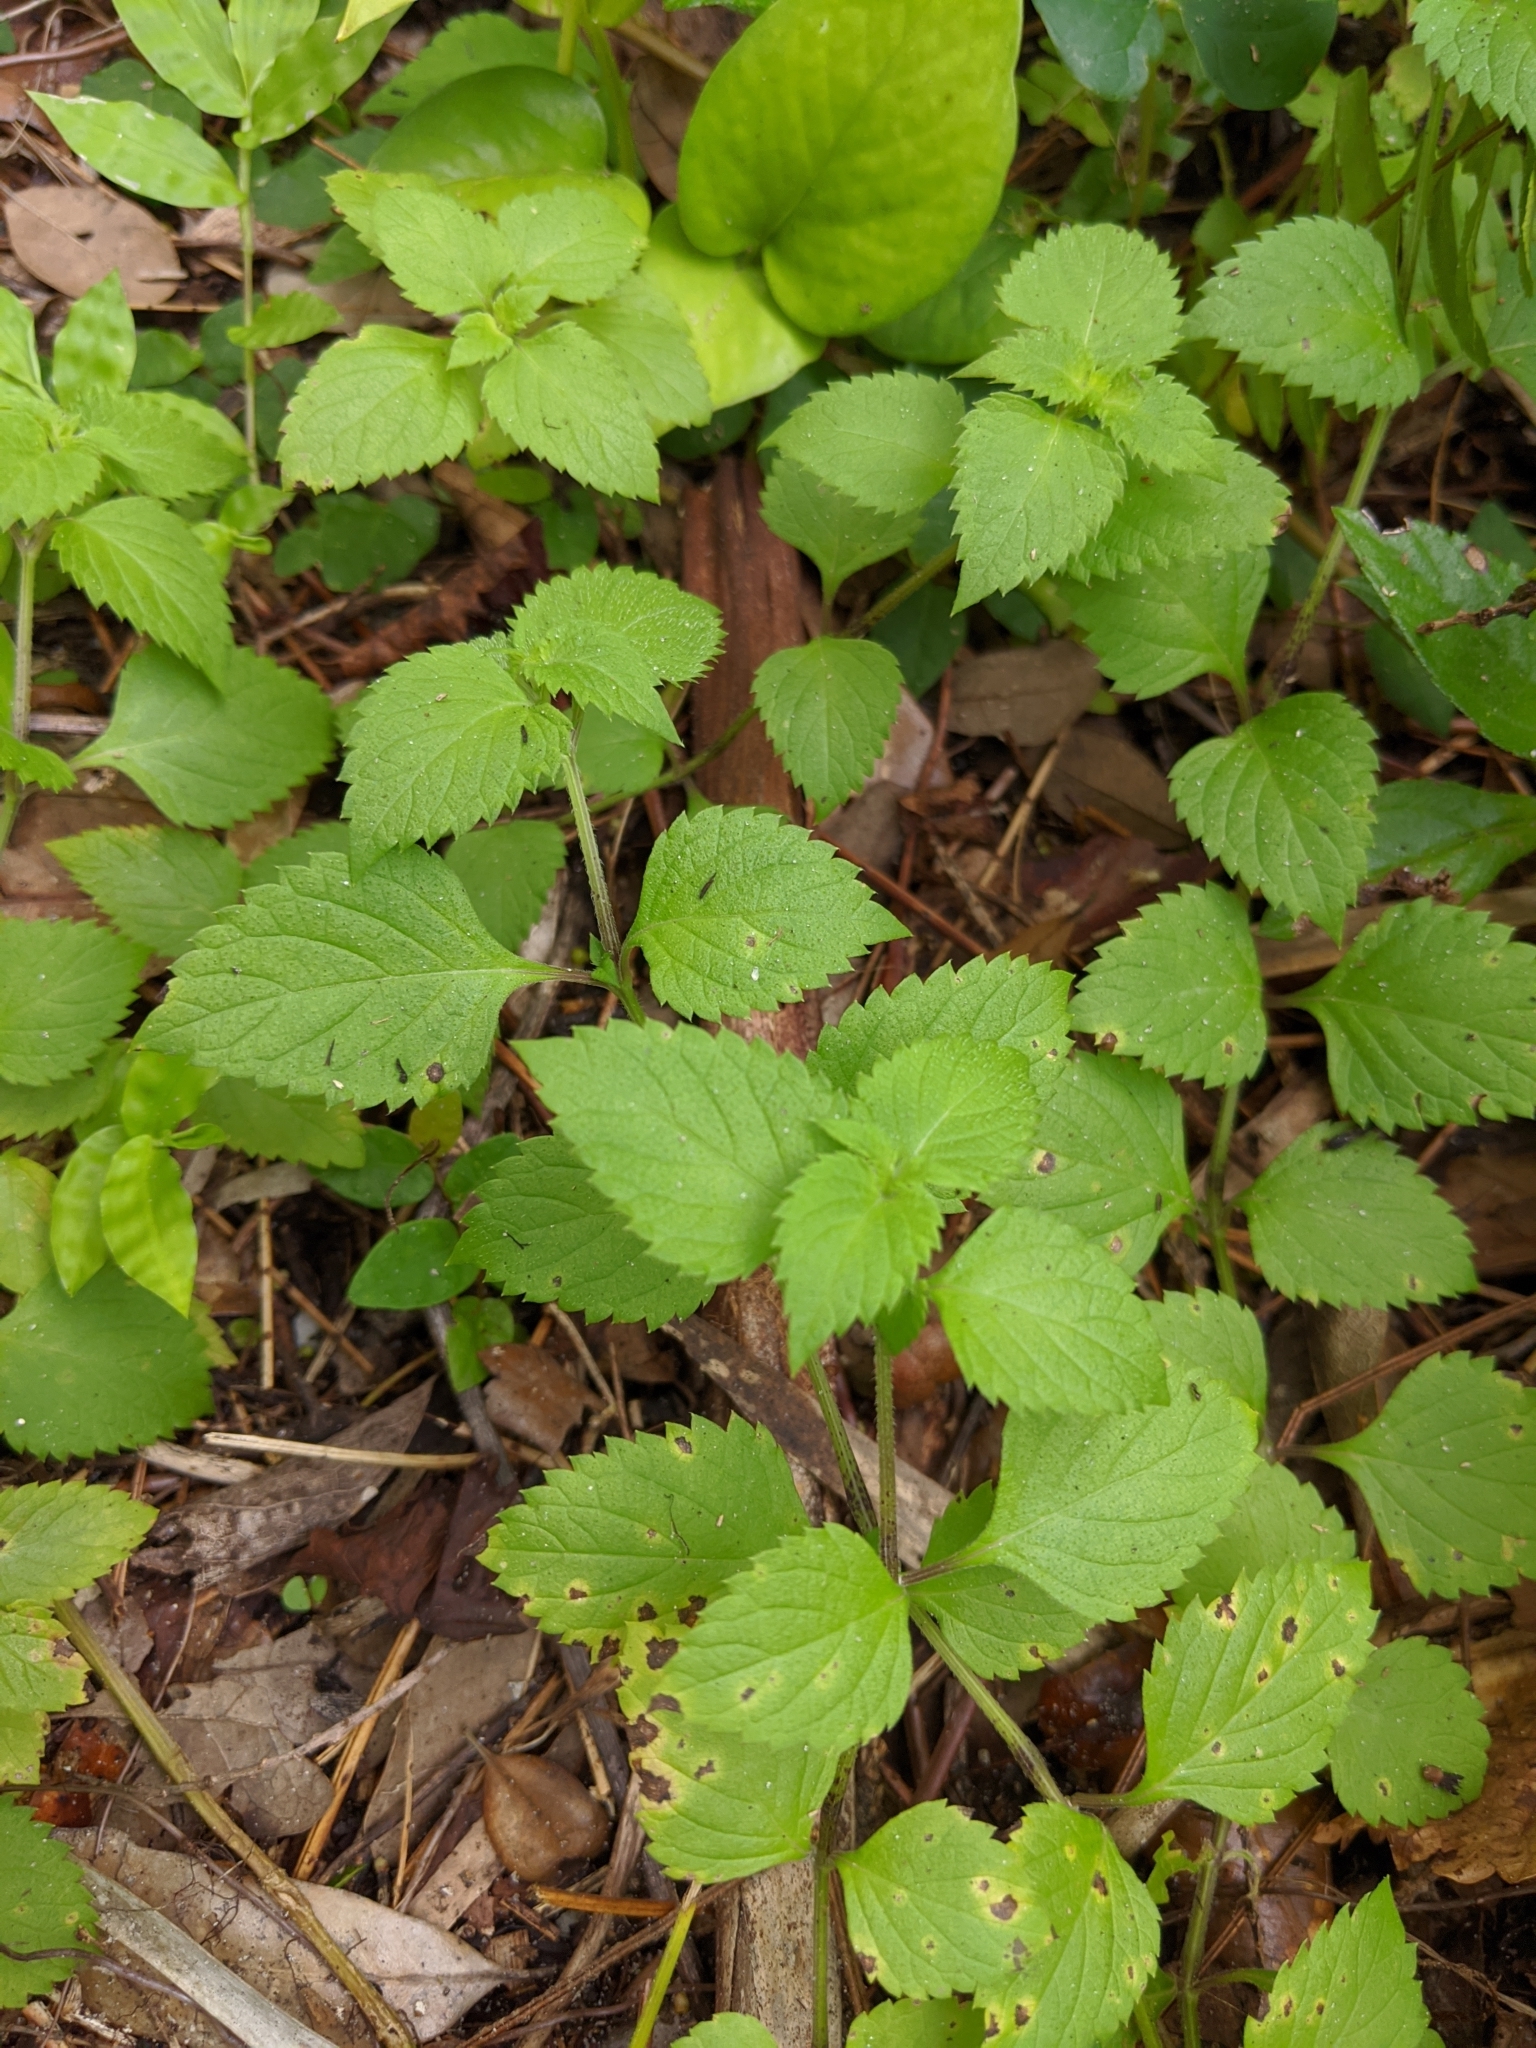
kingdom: Plantae
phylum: Tracheophyta
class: Magnoliopsida
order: Lamiales
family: Lamiaceae
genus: Salvia
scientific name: Salvia misella
